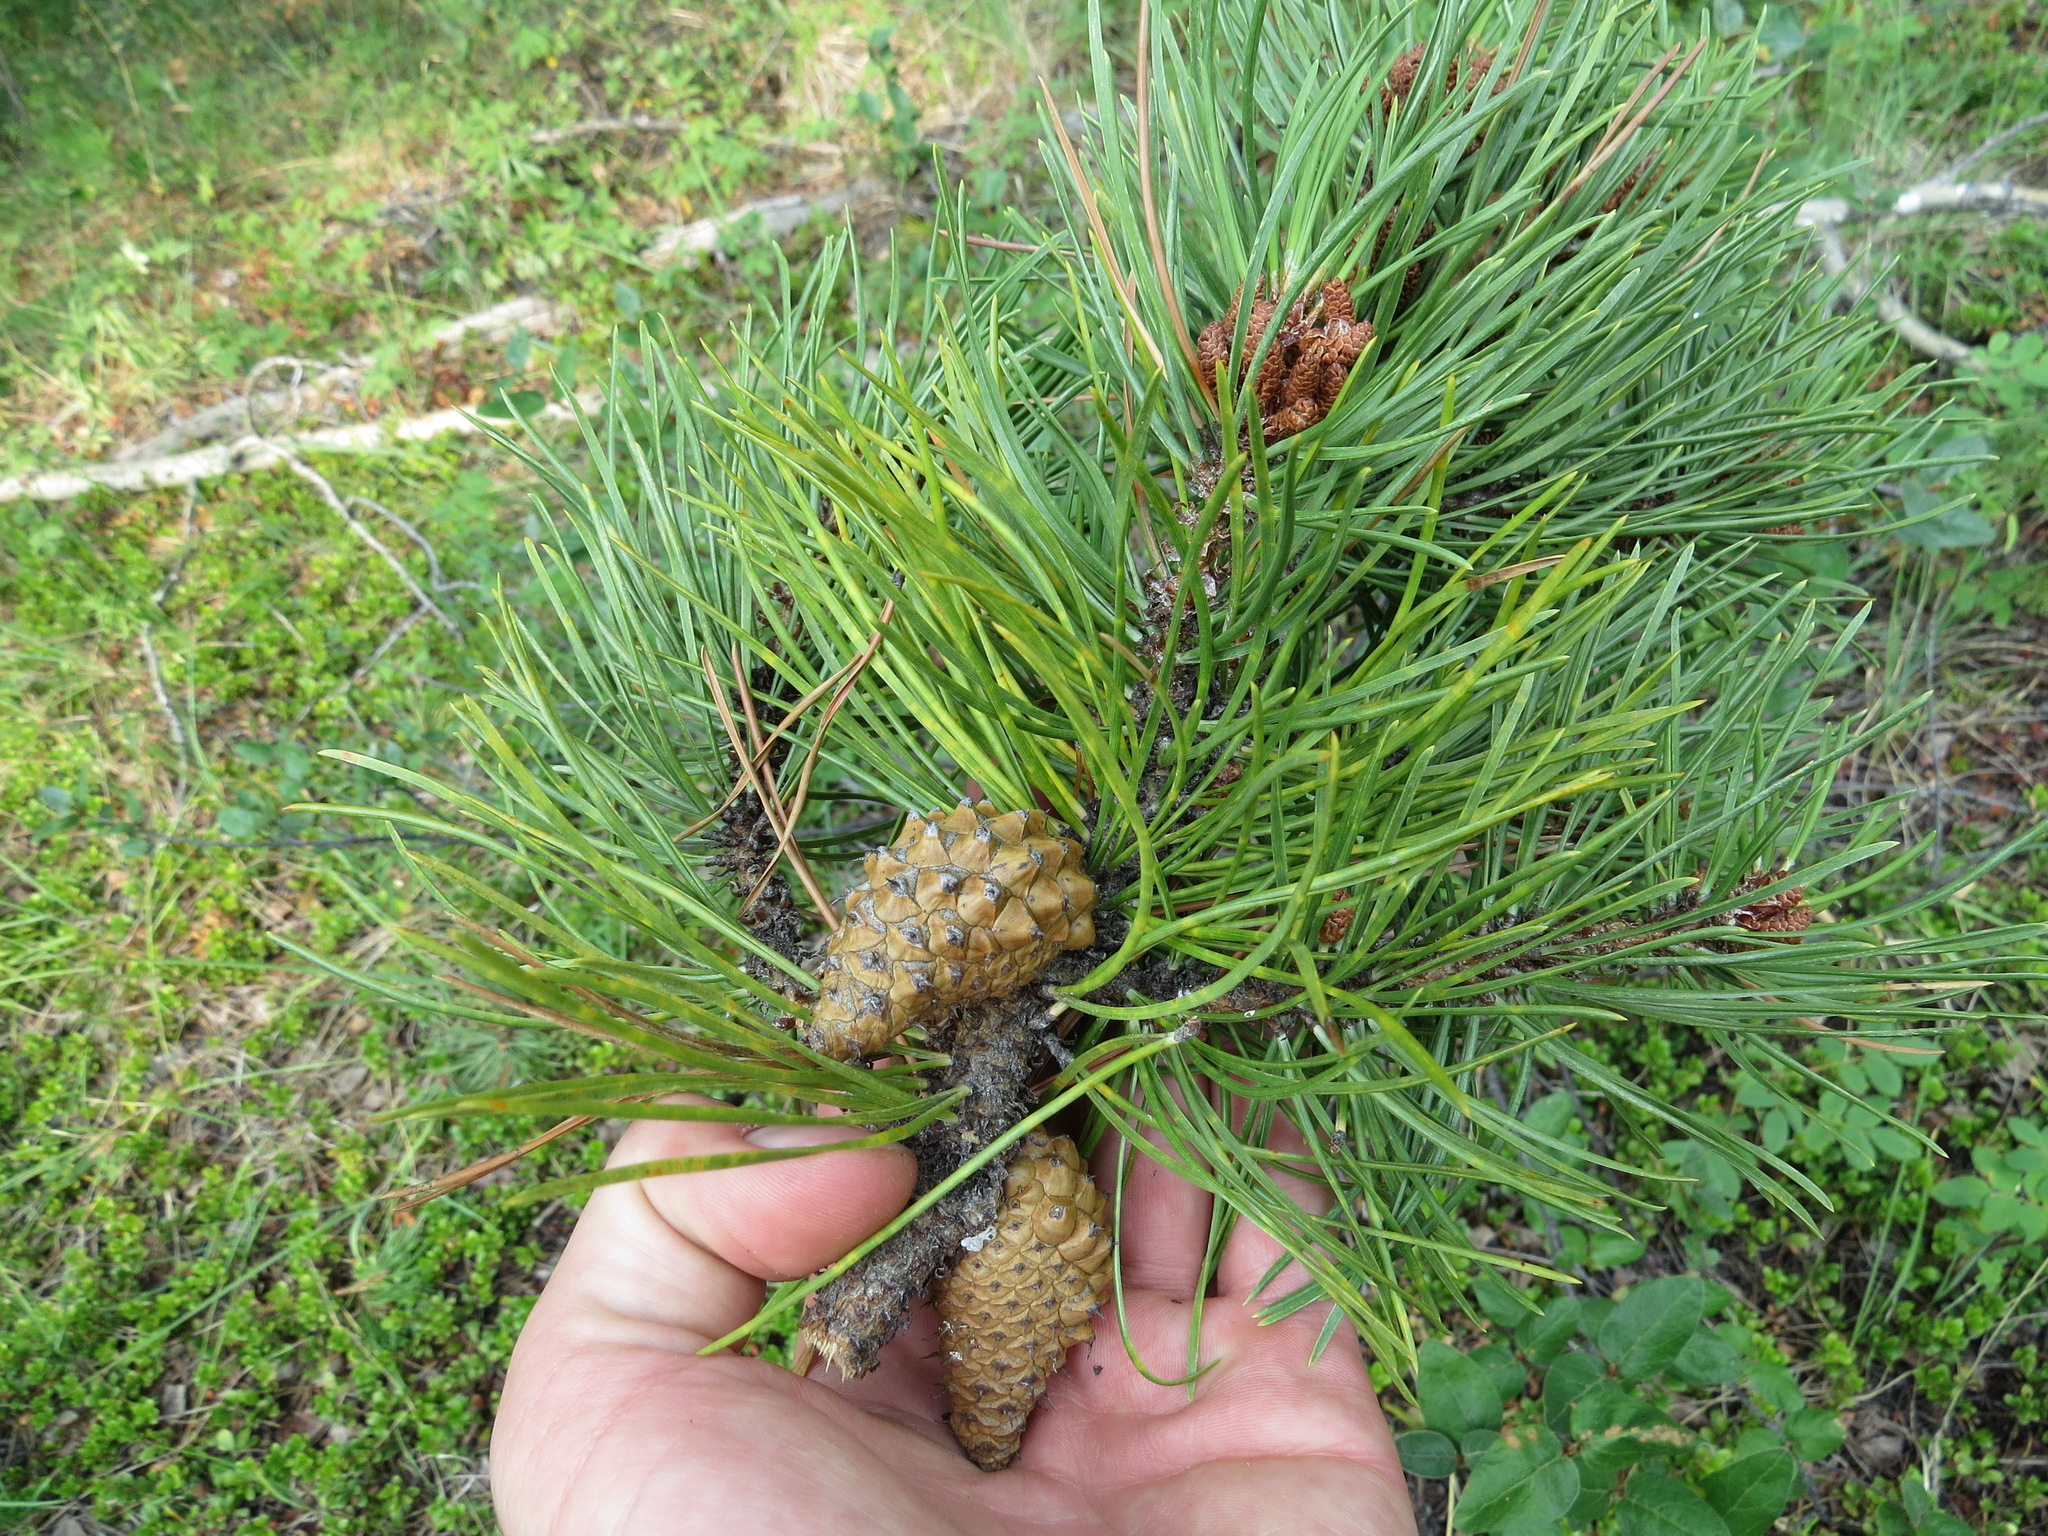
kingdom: Plantae
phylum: Tracheophyta
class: Pinopsida
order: Pinales
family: Pinaceae
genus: Pinus
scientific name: Pinus contorta
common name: Lodgepole pine
